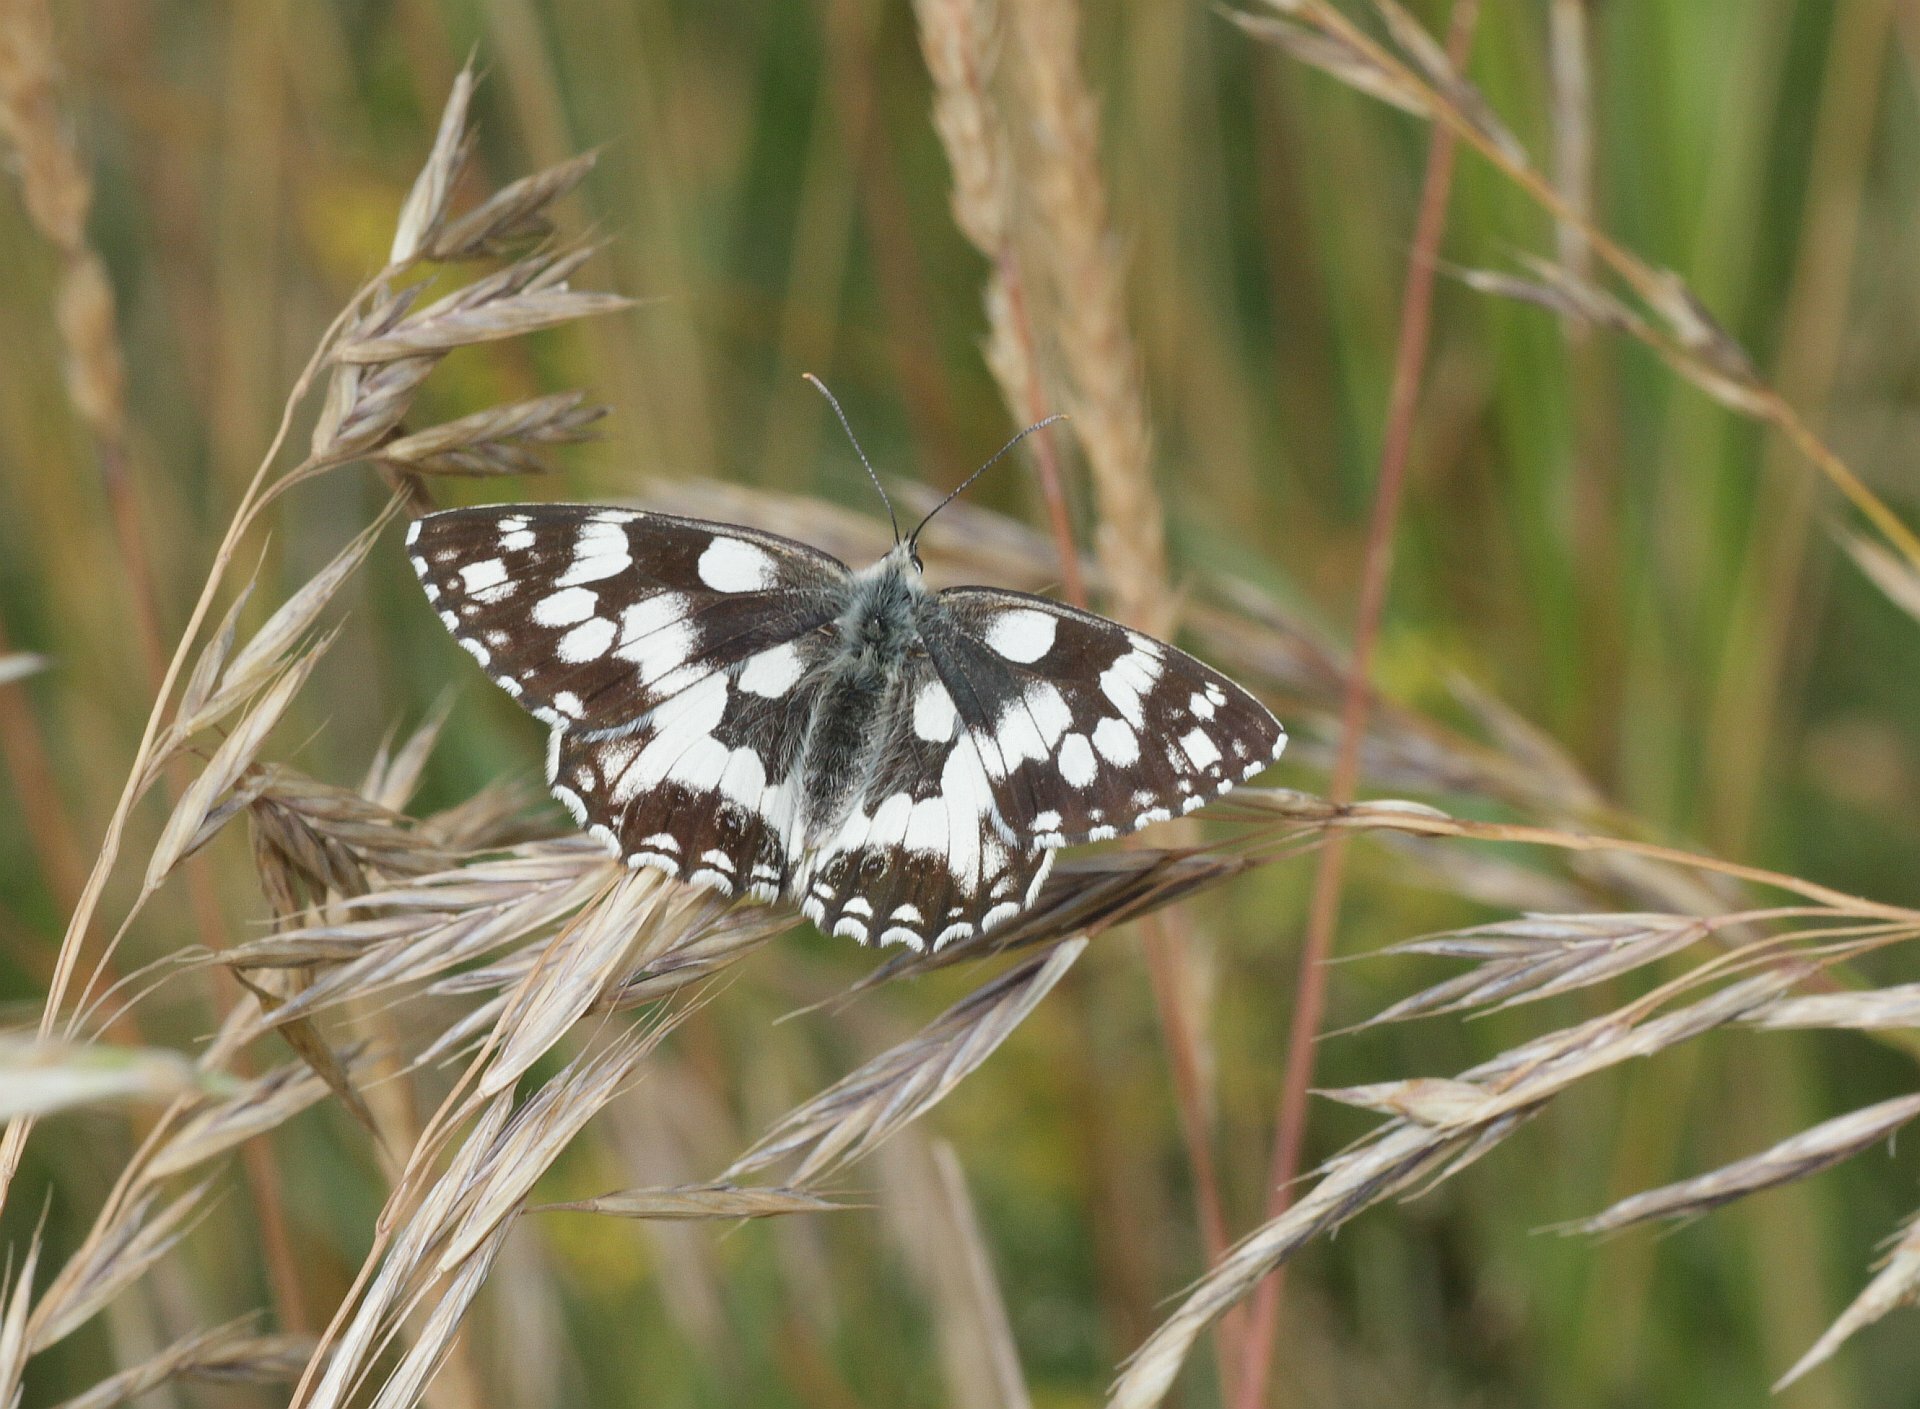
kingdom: Animalia
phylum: Arthropoda
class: Insecta
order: Lepidoptera
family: Nymphalidae
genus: Melanargia
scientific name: Melanargia galathea
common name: Marbled white
